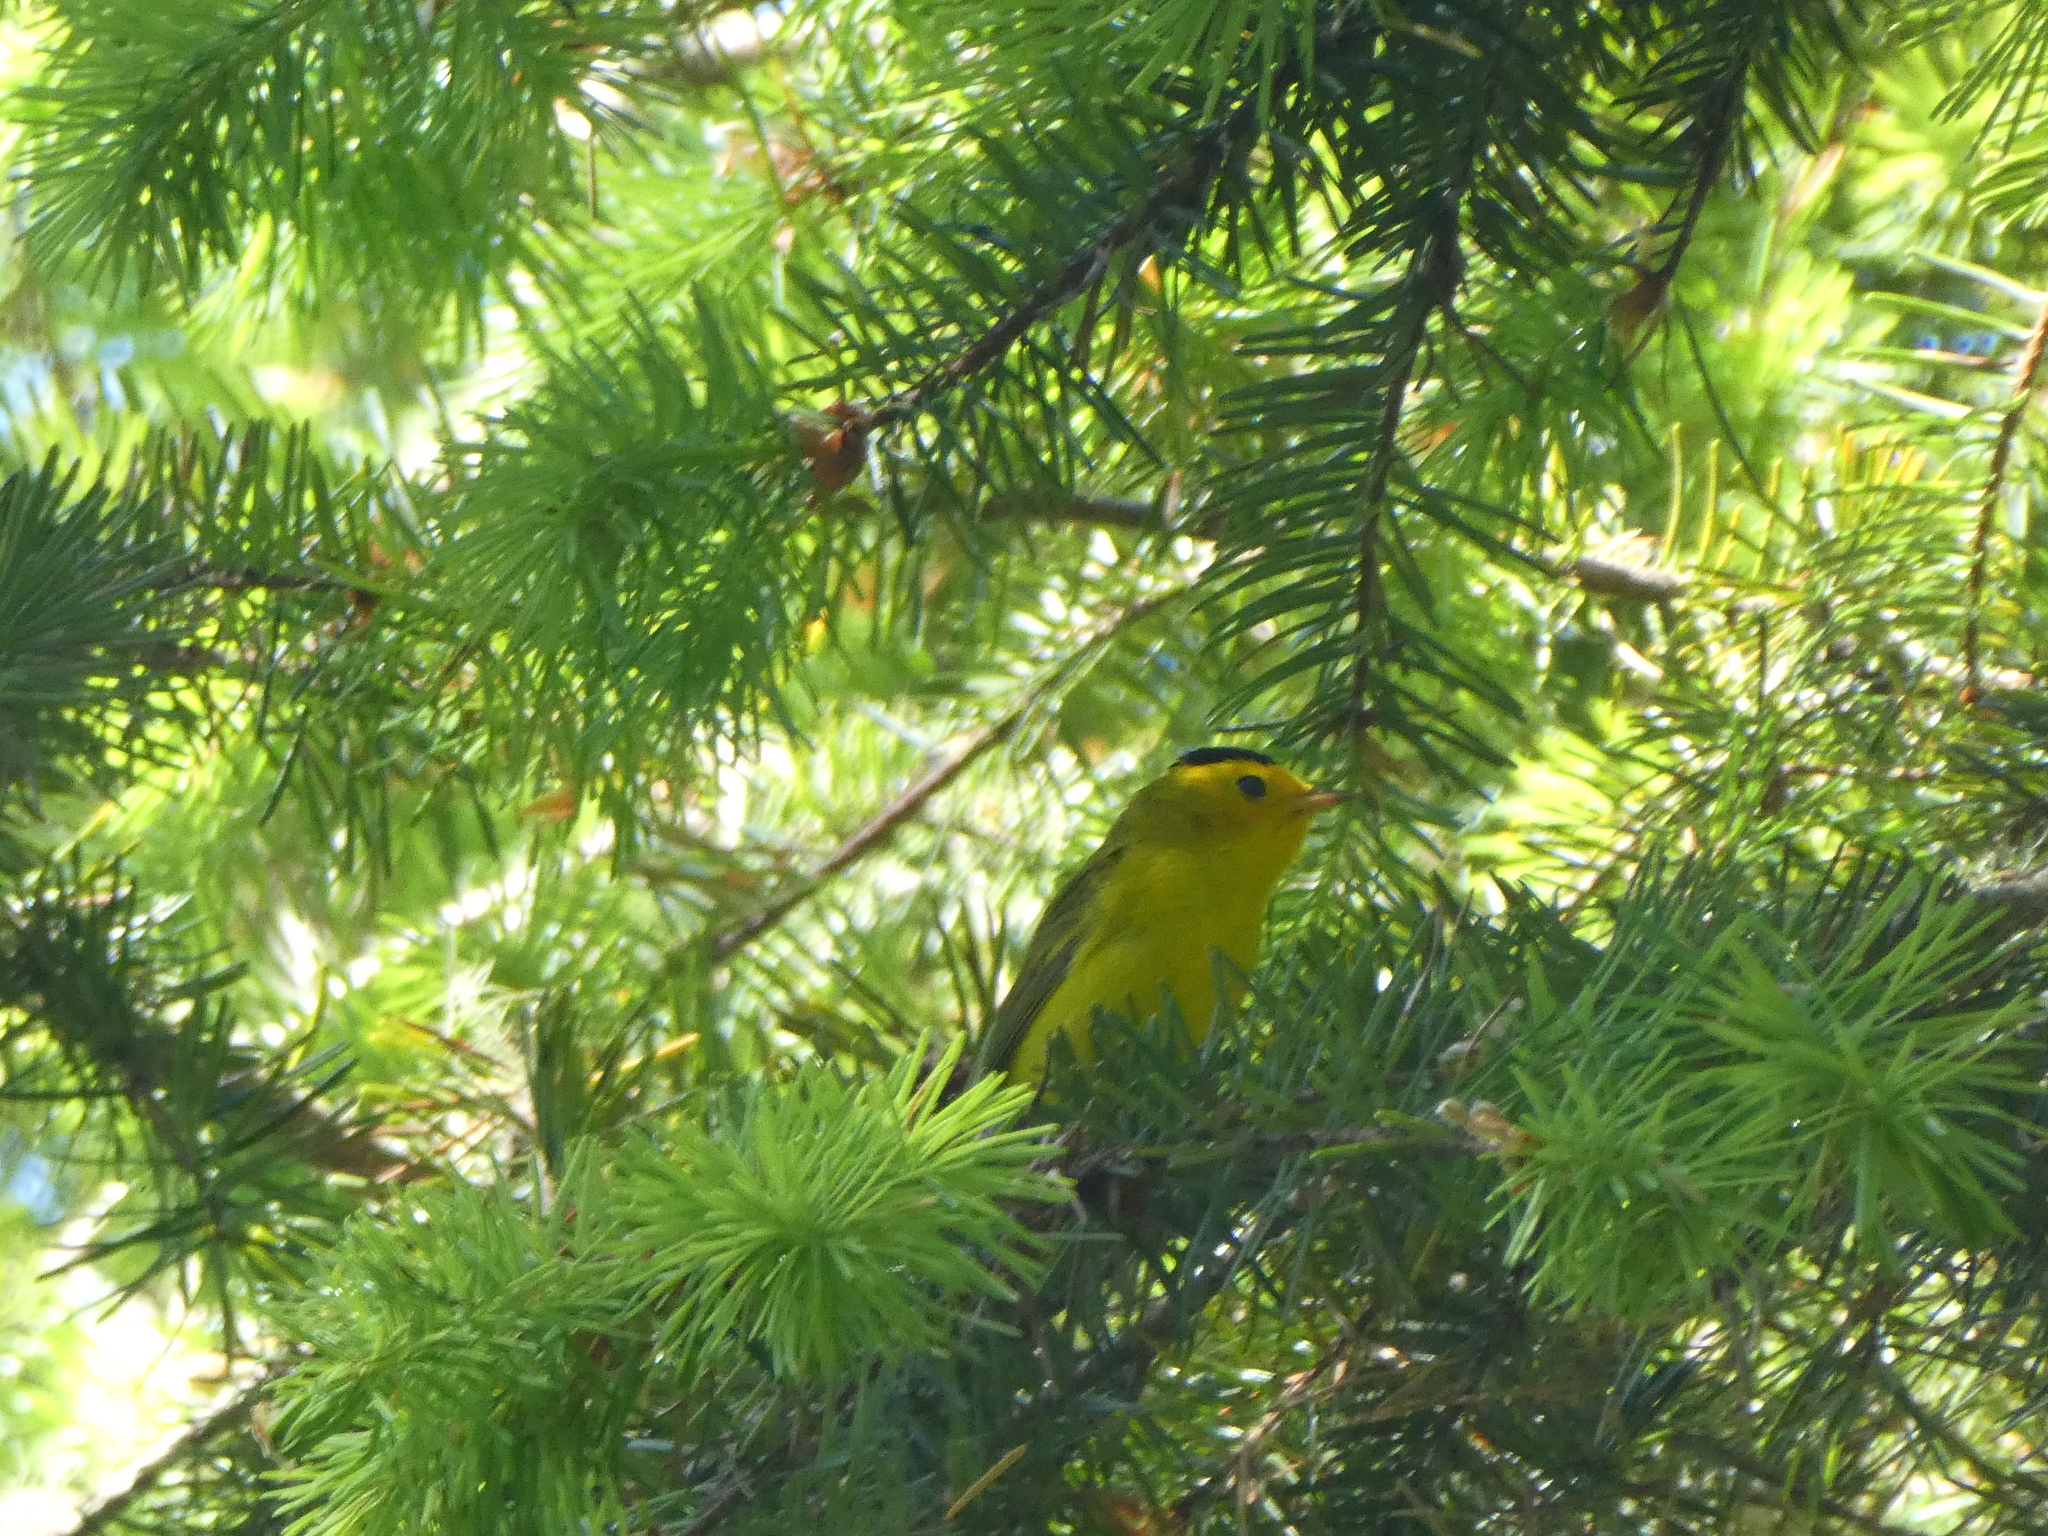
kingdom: Animalia
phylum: Chordata
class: Aves
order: Passeriformes
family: Parulidae
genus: Cardellina
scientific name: Cardellina pusilla
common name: Wilson's warbler
